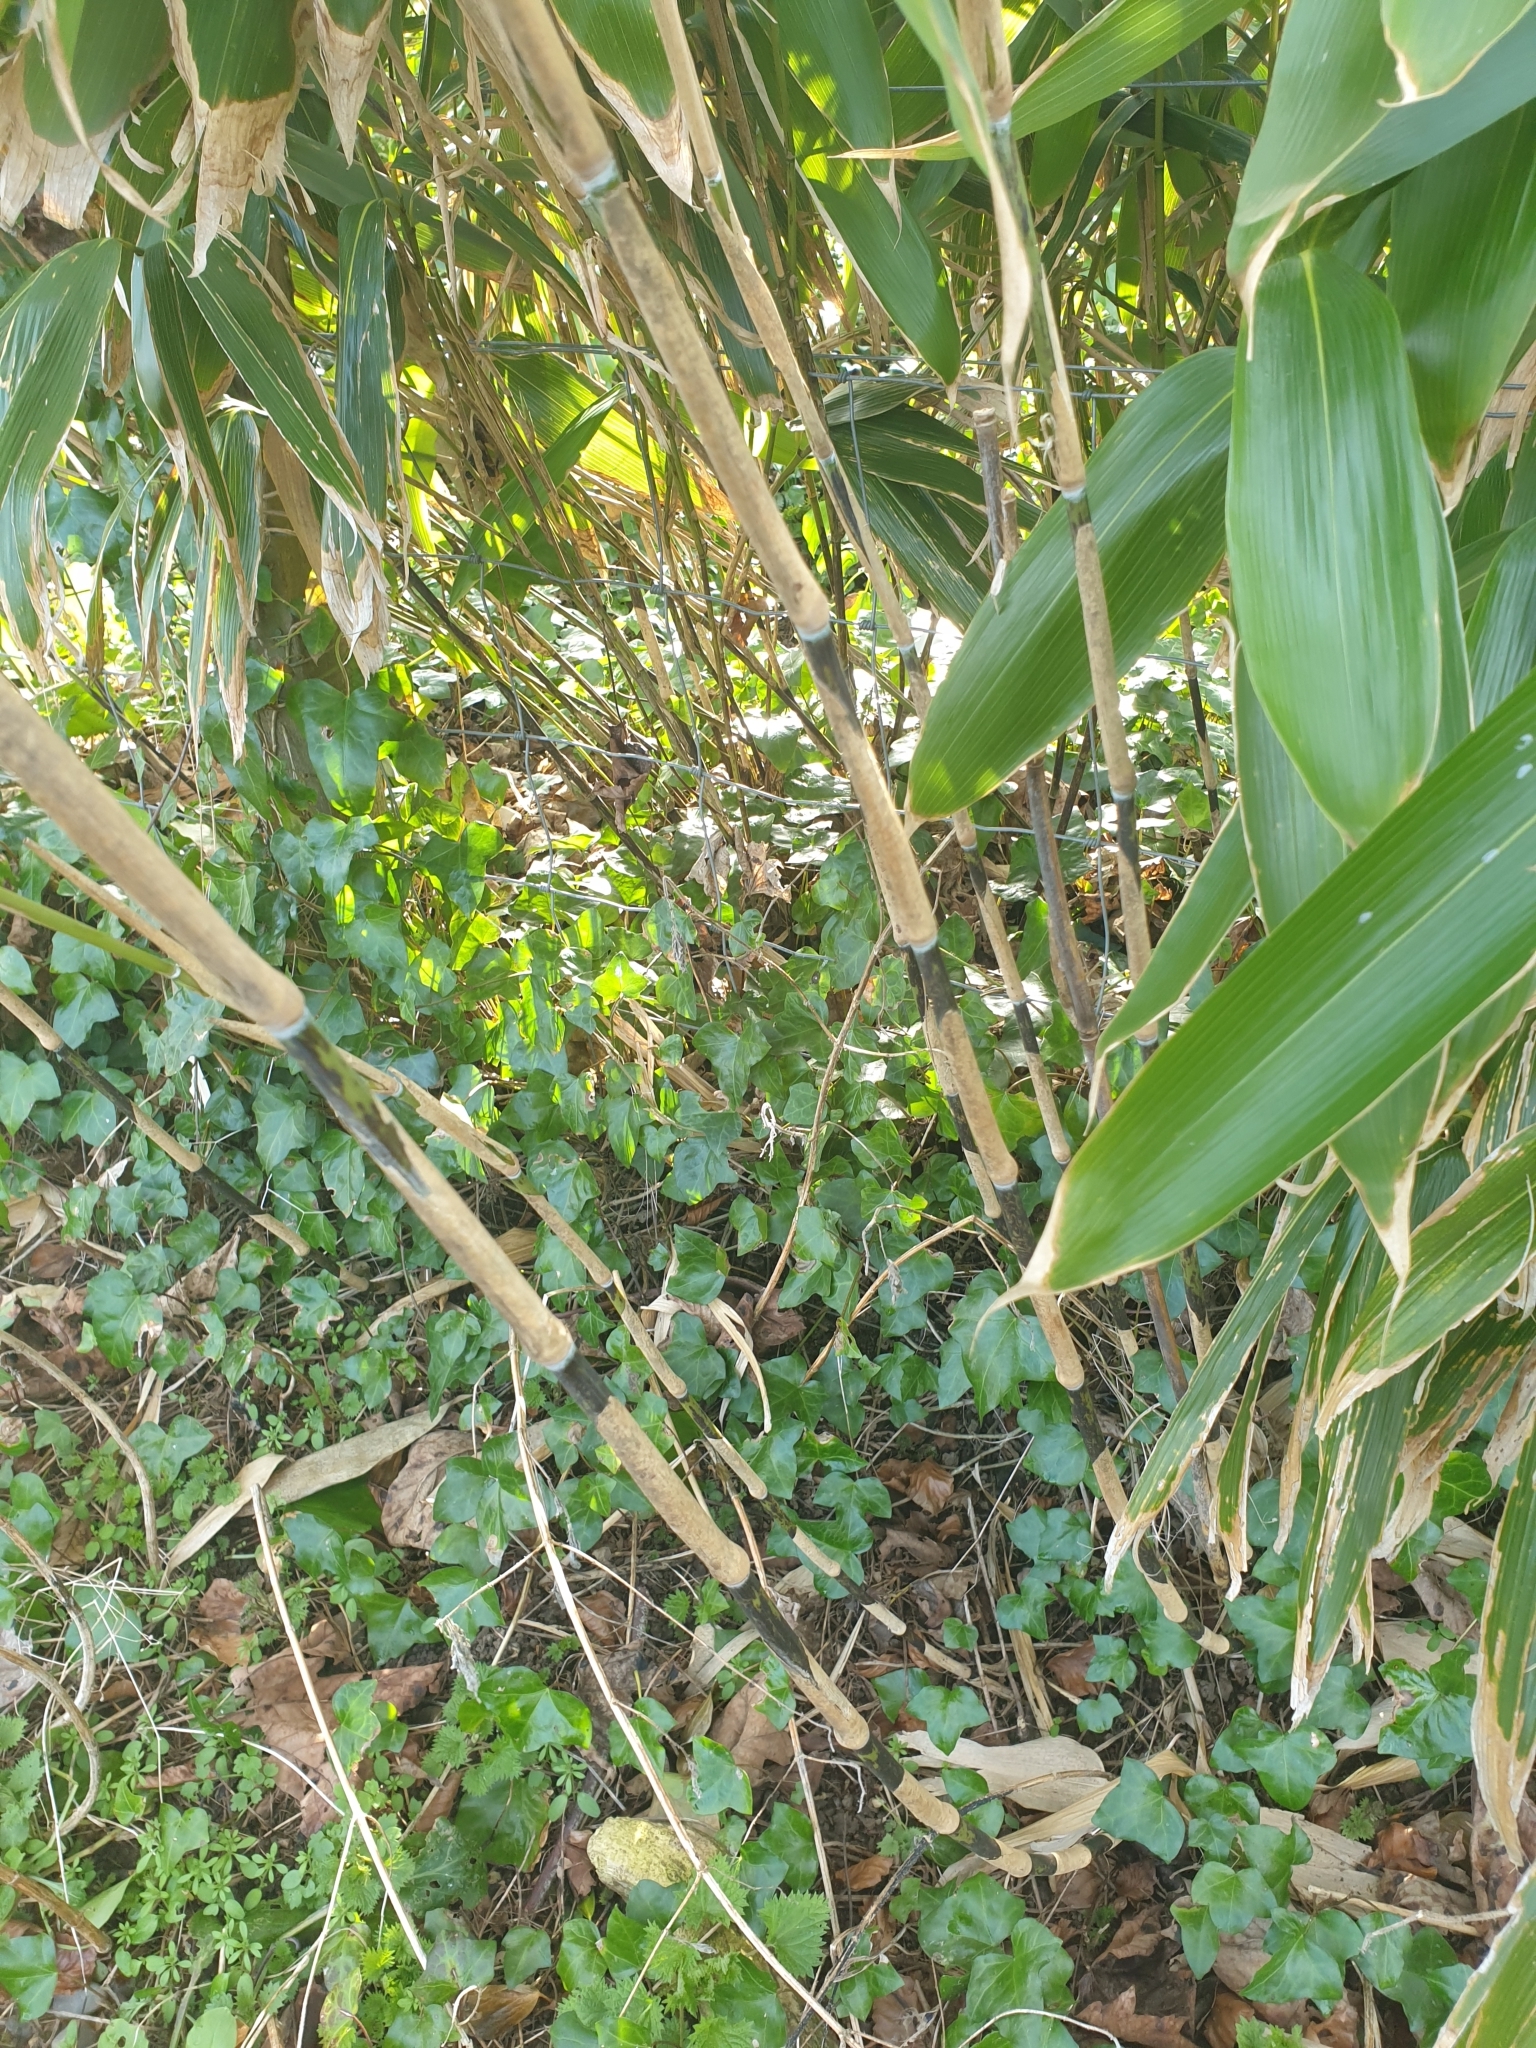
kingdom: Plantae
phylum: Tracheophyta
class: Liliopsida
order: Poales
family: Poaceae
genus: Sasa
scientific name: Sasa palmata
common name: Broad-leaved bamboo
